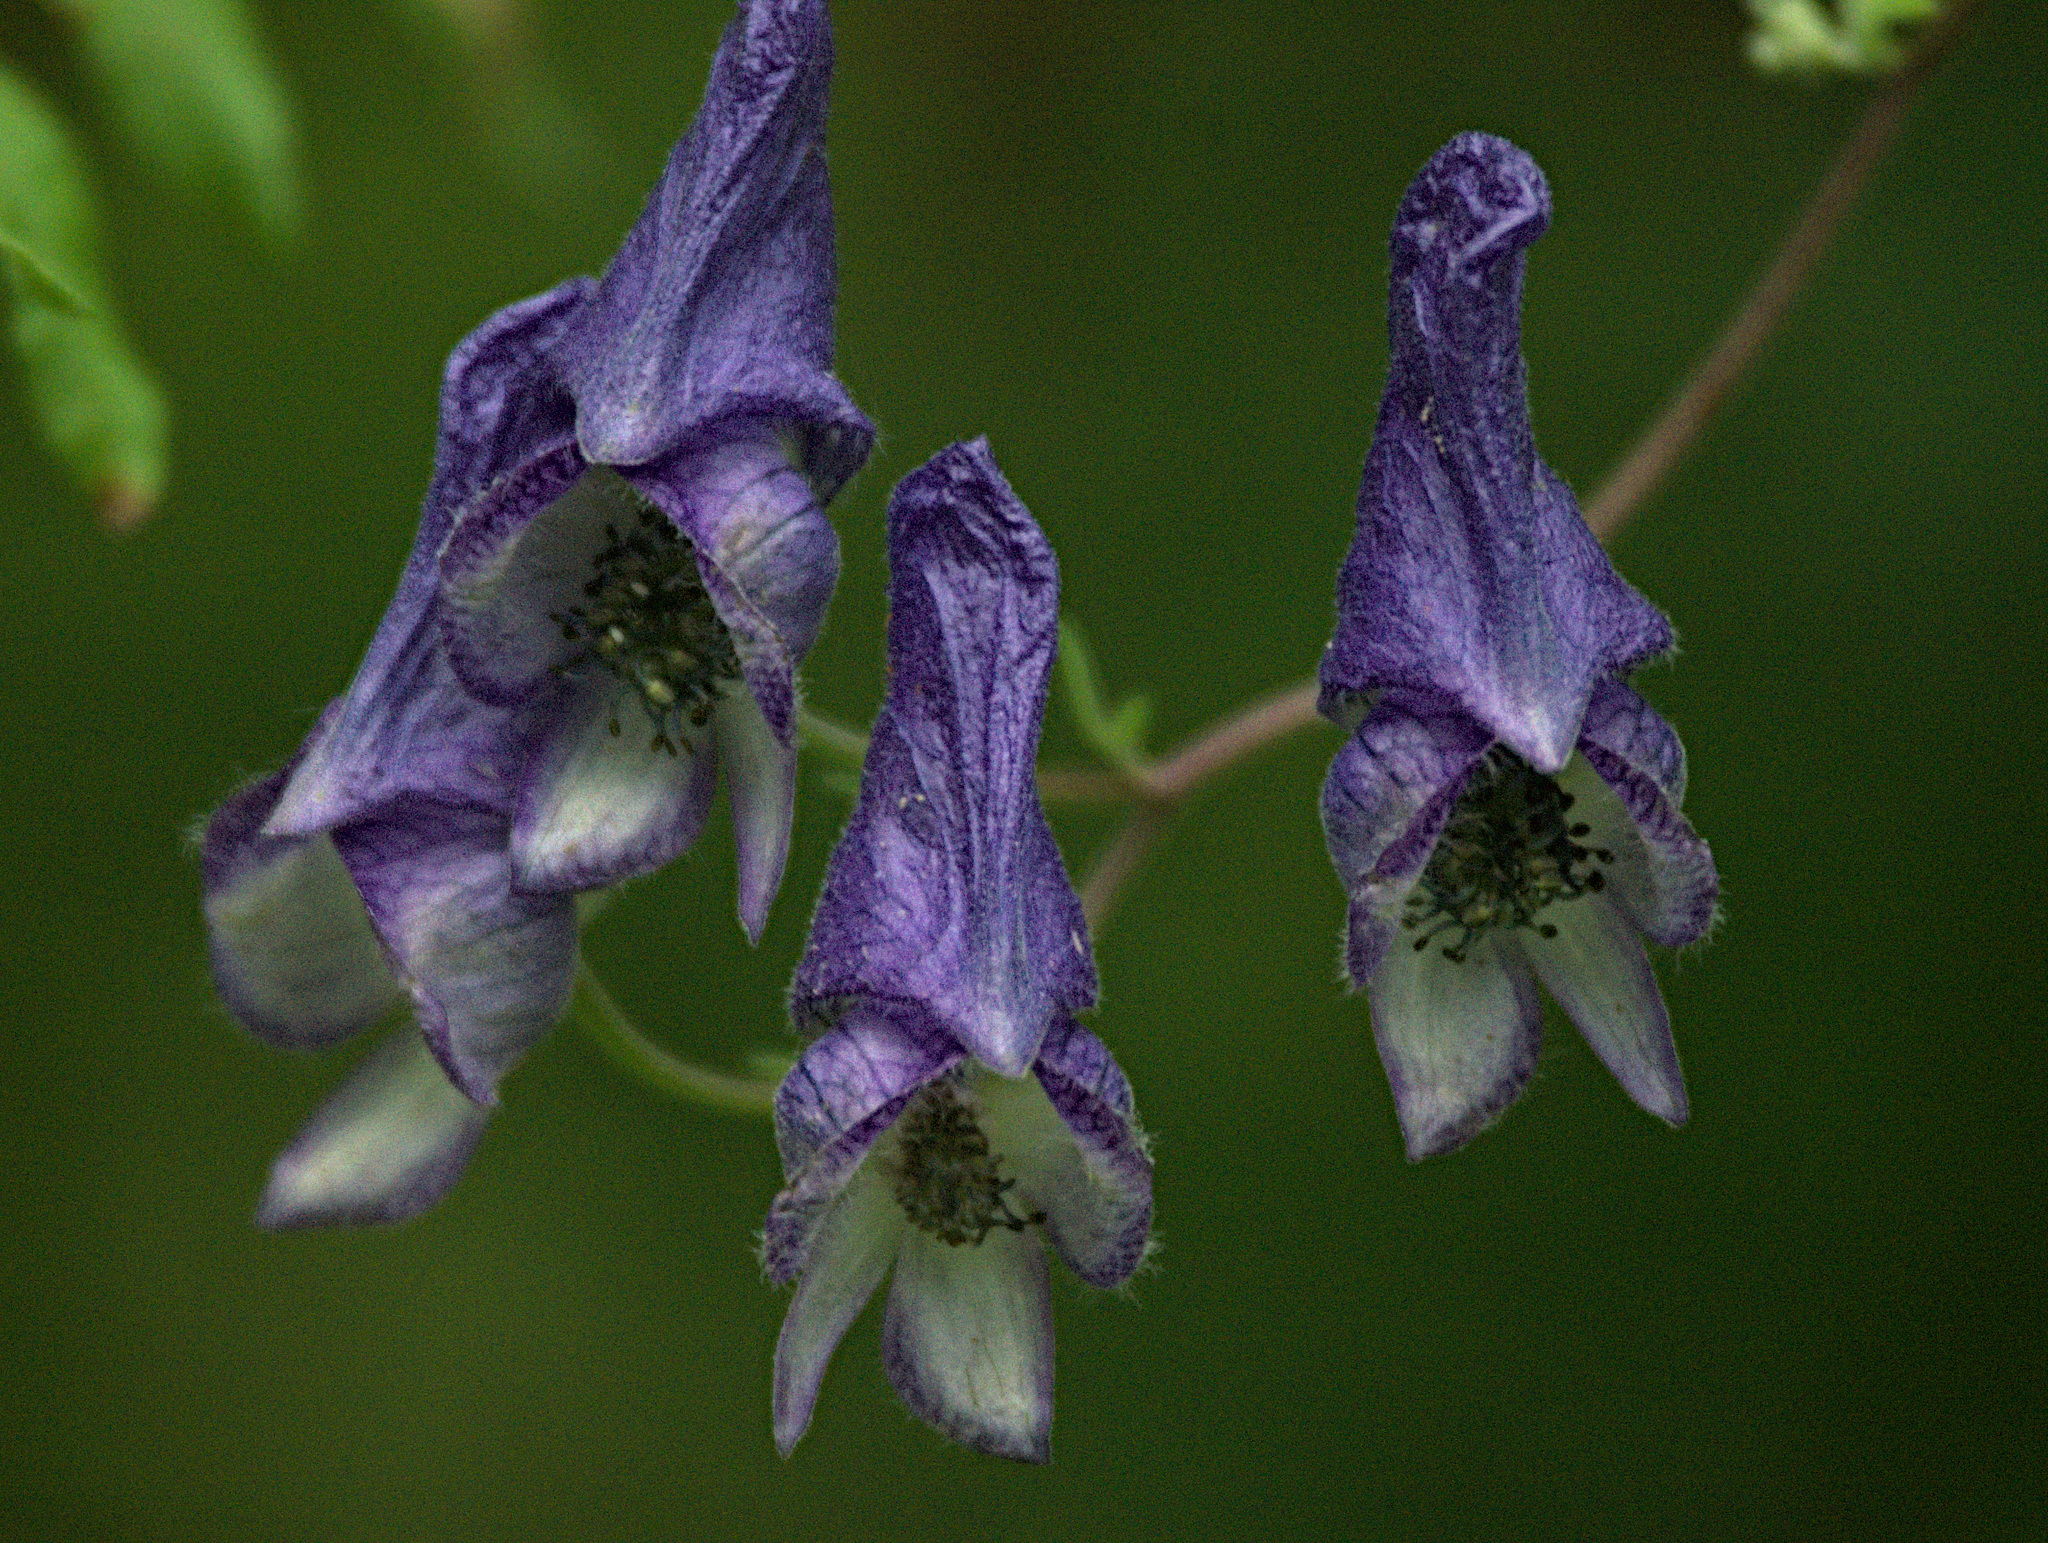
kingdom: Plantae
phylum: Tracheophyta
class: Magnoliopsida
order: Ranunculales
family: Ranunculaceae
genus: Aconitum
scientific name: Aconitum volubile
